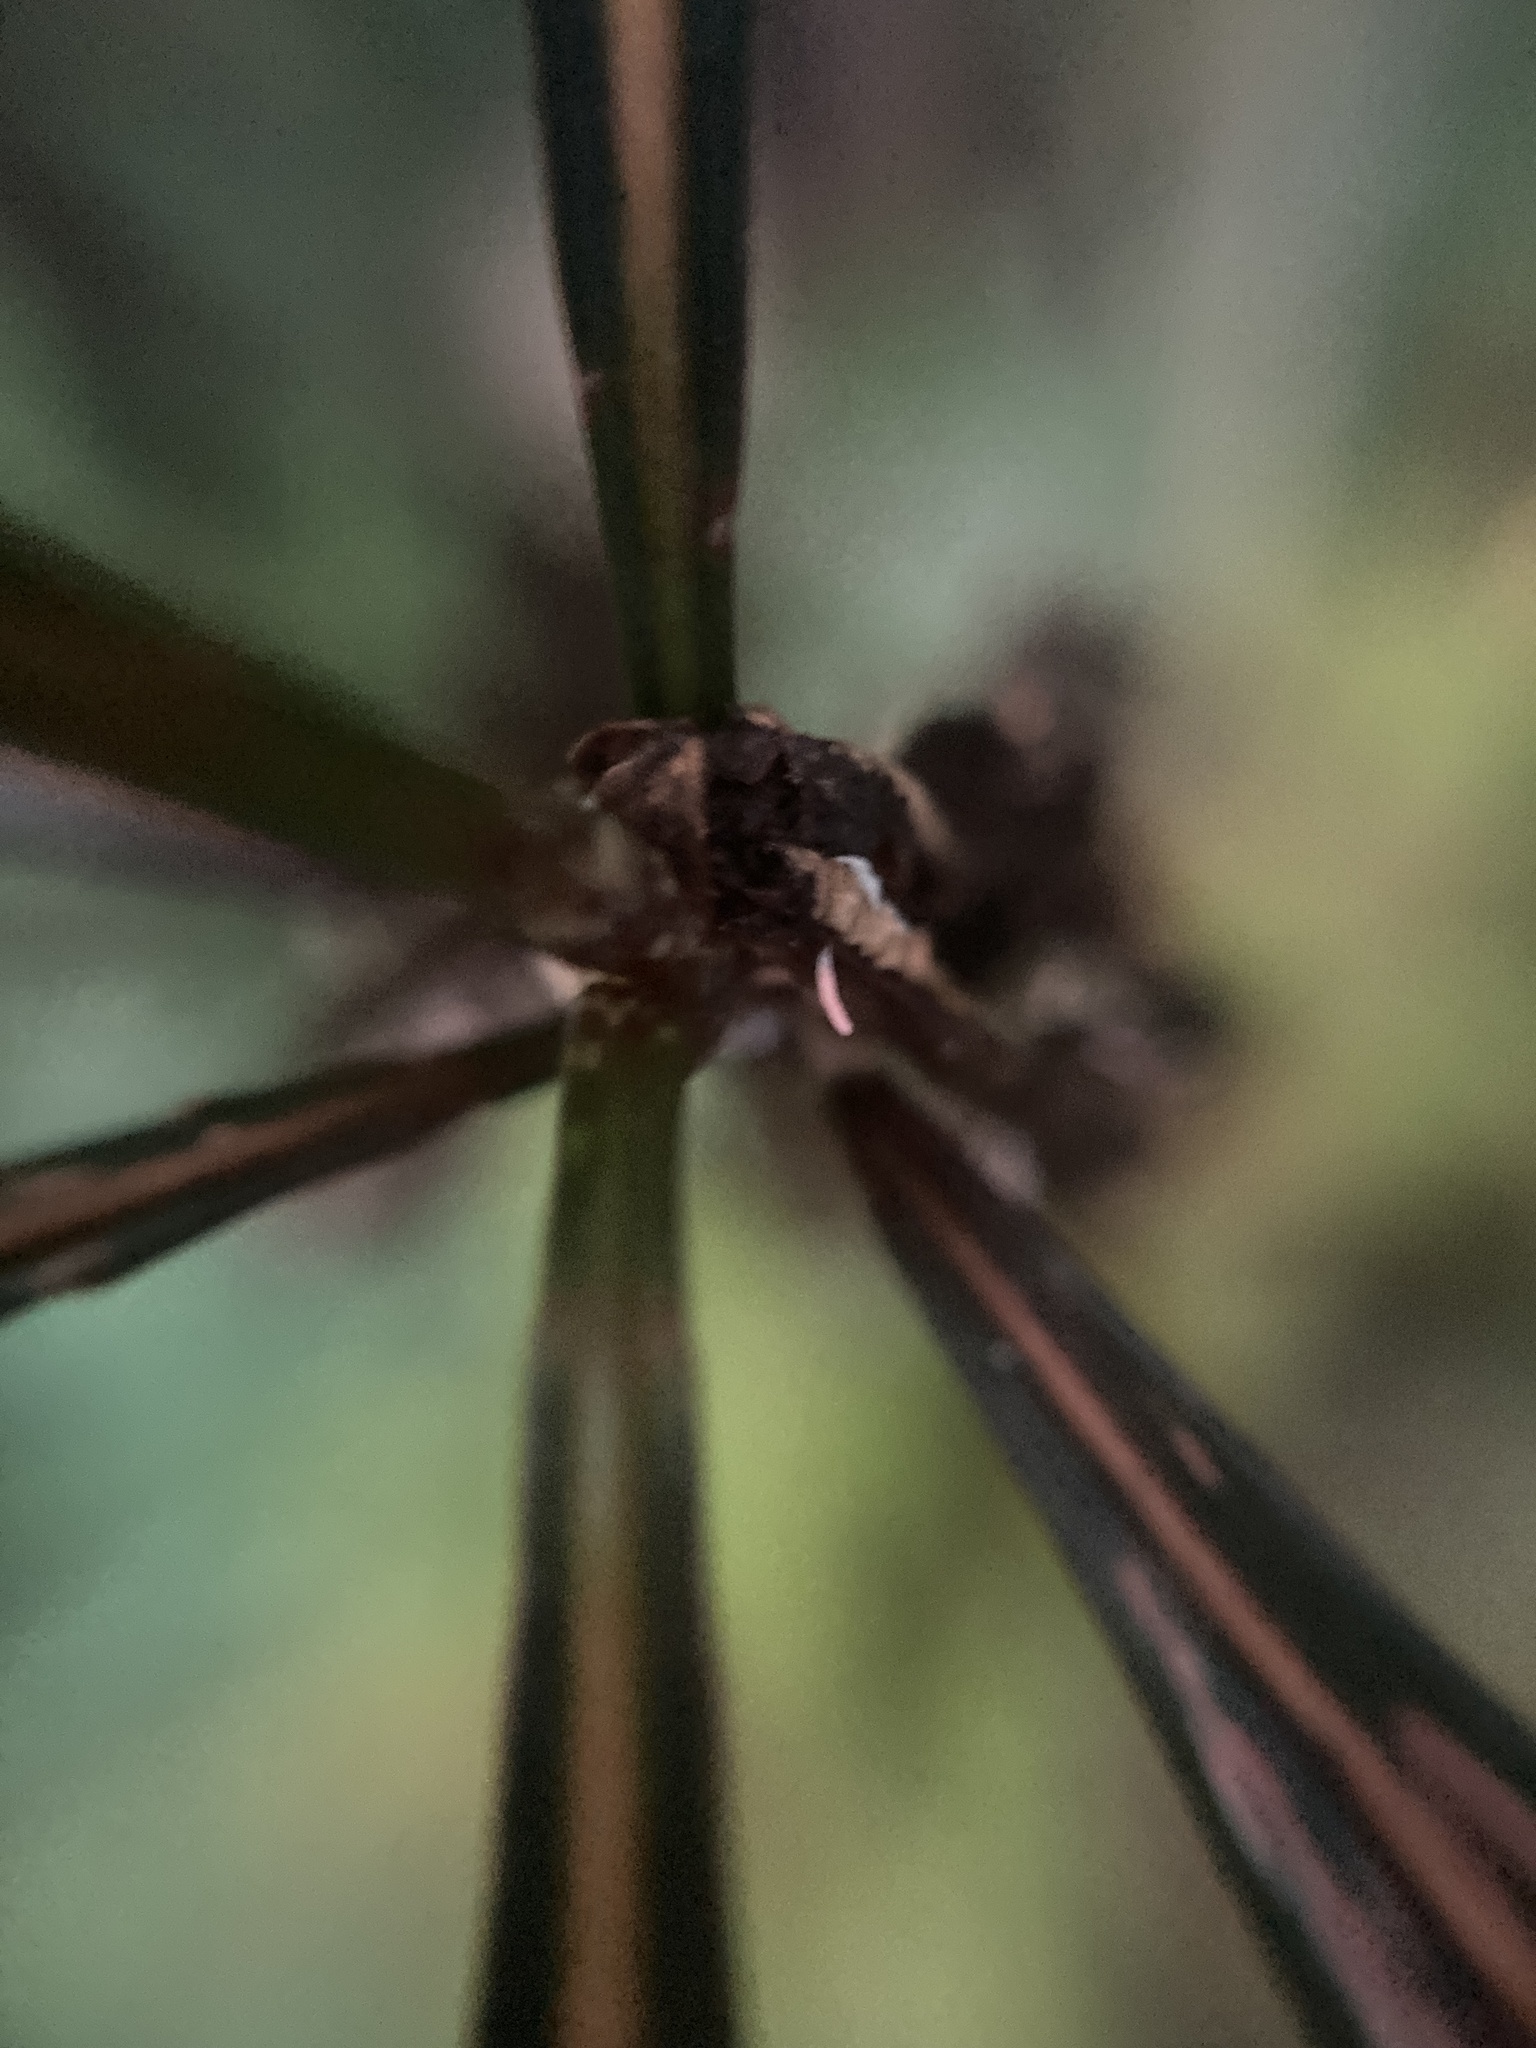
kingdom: Plantae
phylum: Tracheophyta
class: Magnoliopsida
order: Apiales
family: Araliaceae
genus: Pseudopanax
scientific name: Pseudopanax crassifolius
